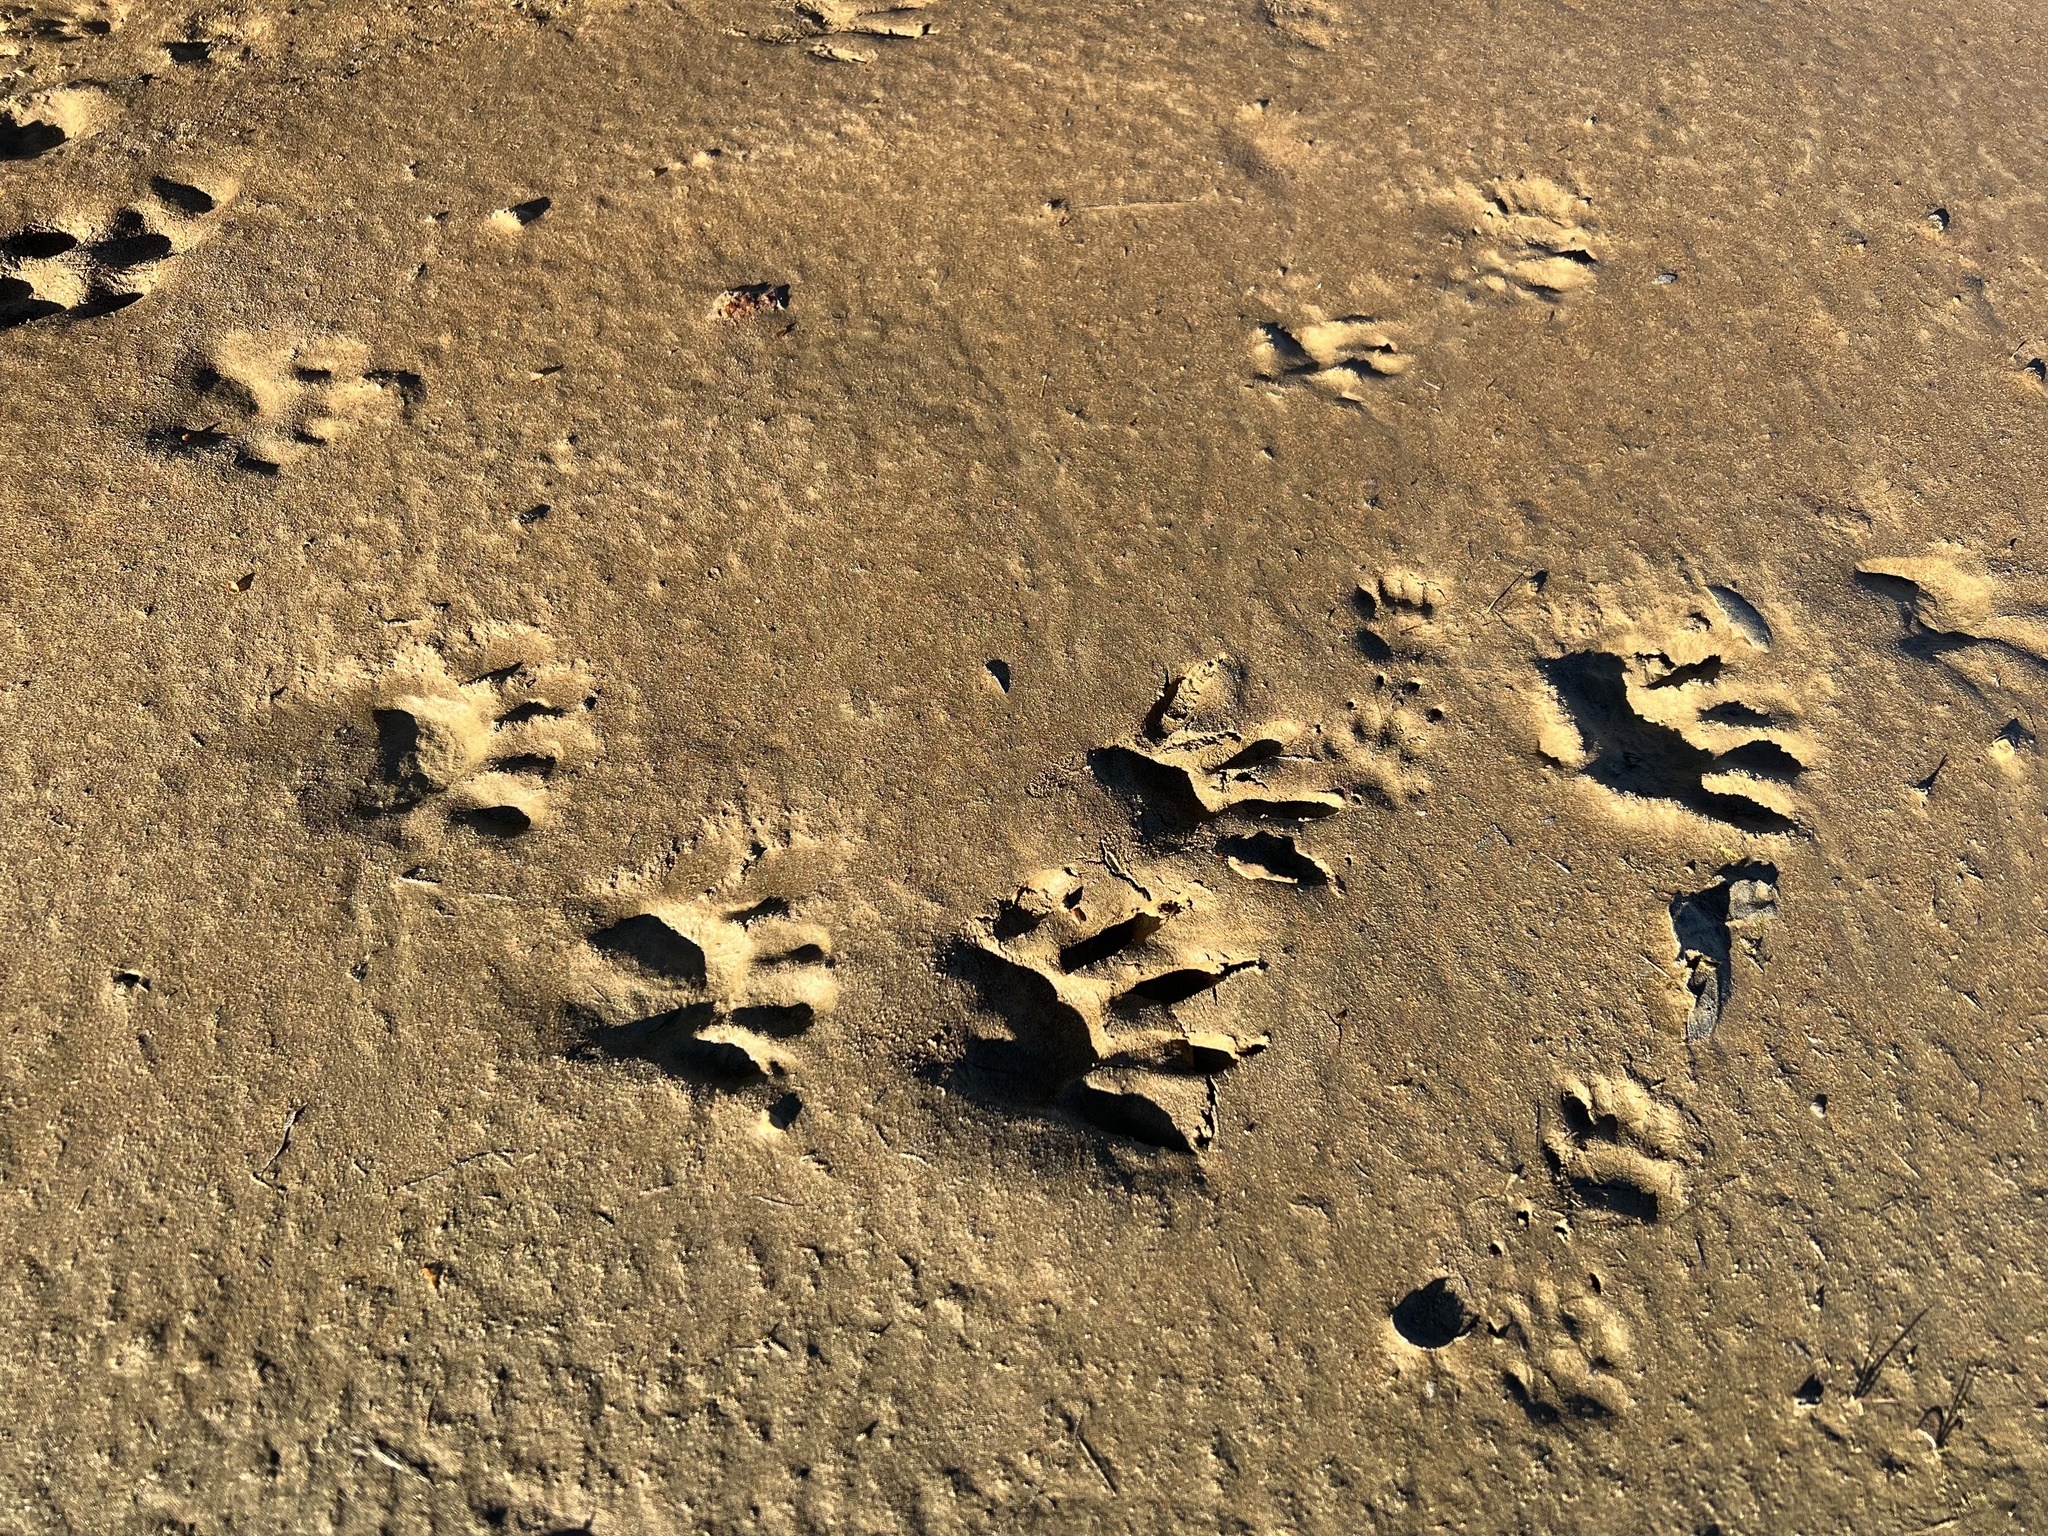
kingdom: Animalia
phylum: Chordata
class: Mammalia
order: Carnivora
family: Procyonidae
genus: Procyon
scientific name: Procyon lotor
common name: Raccoon
